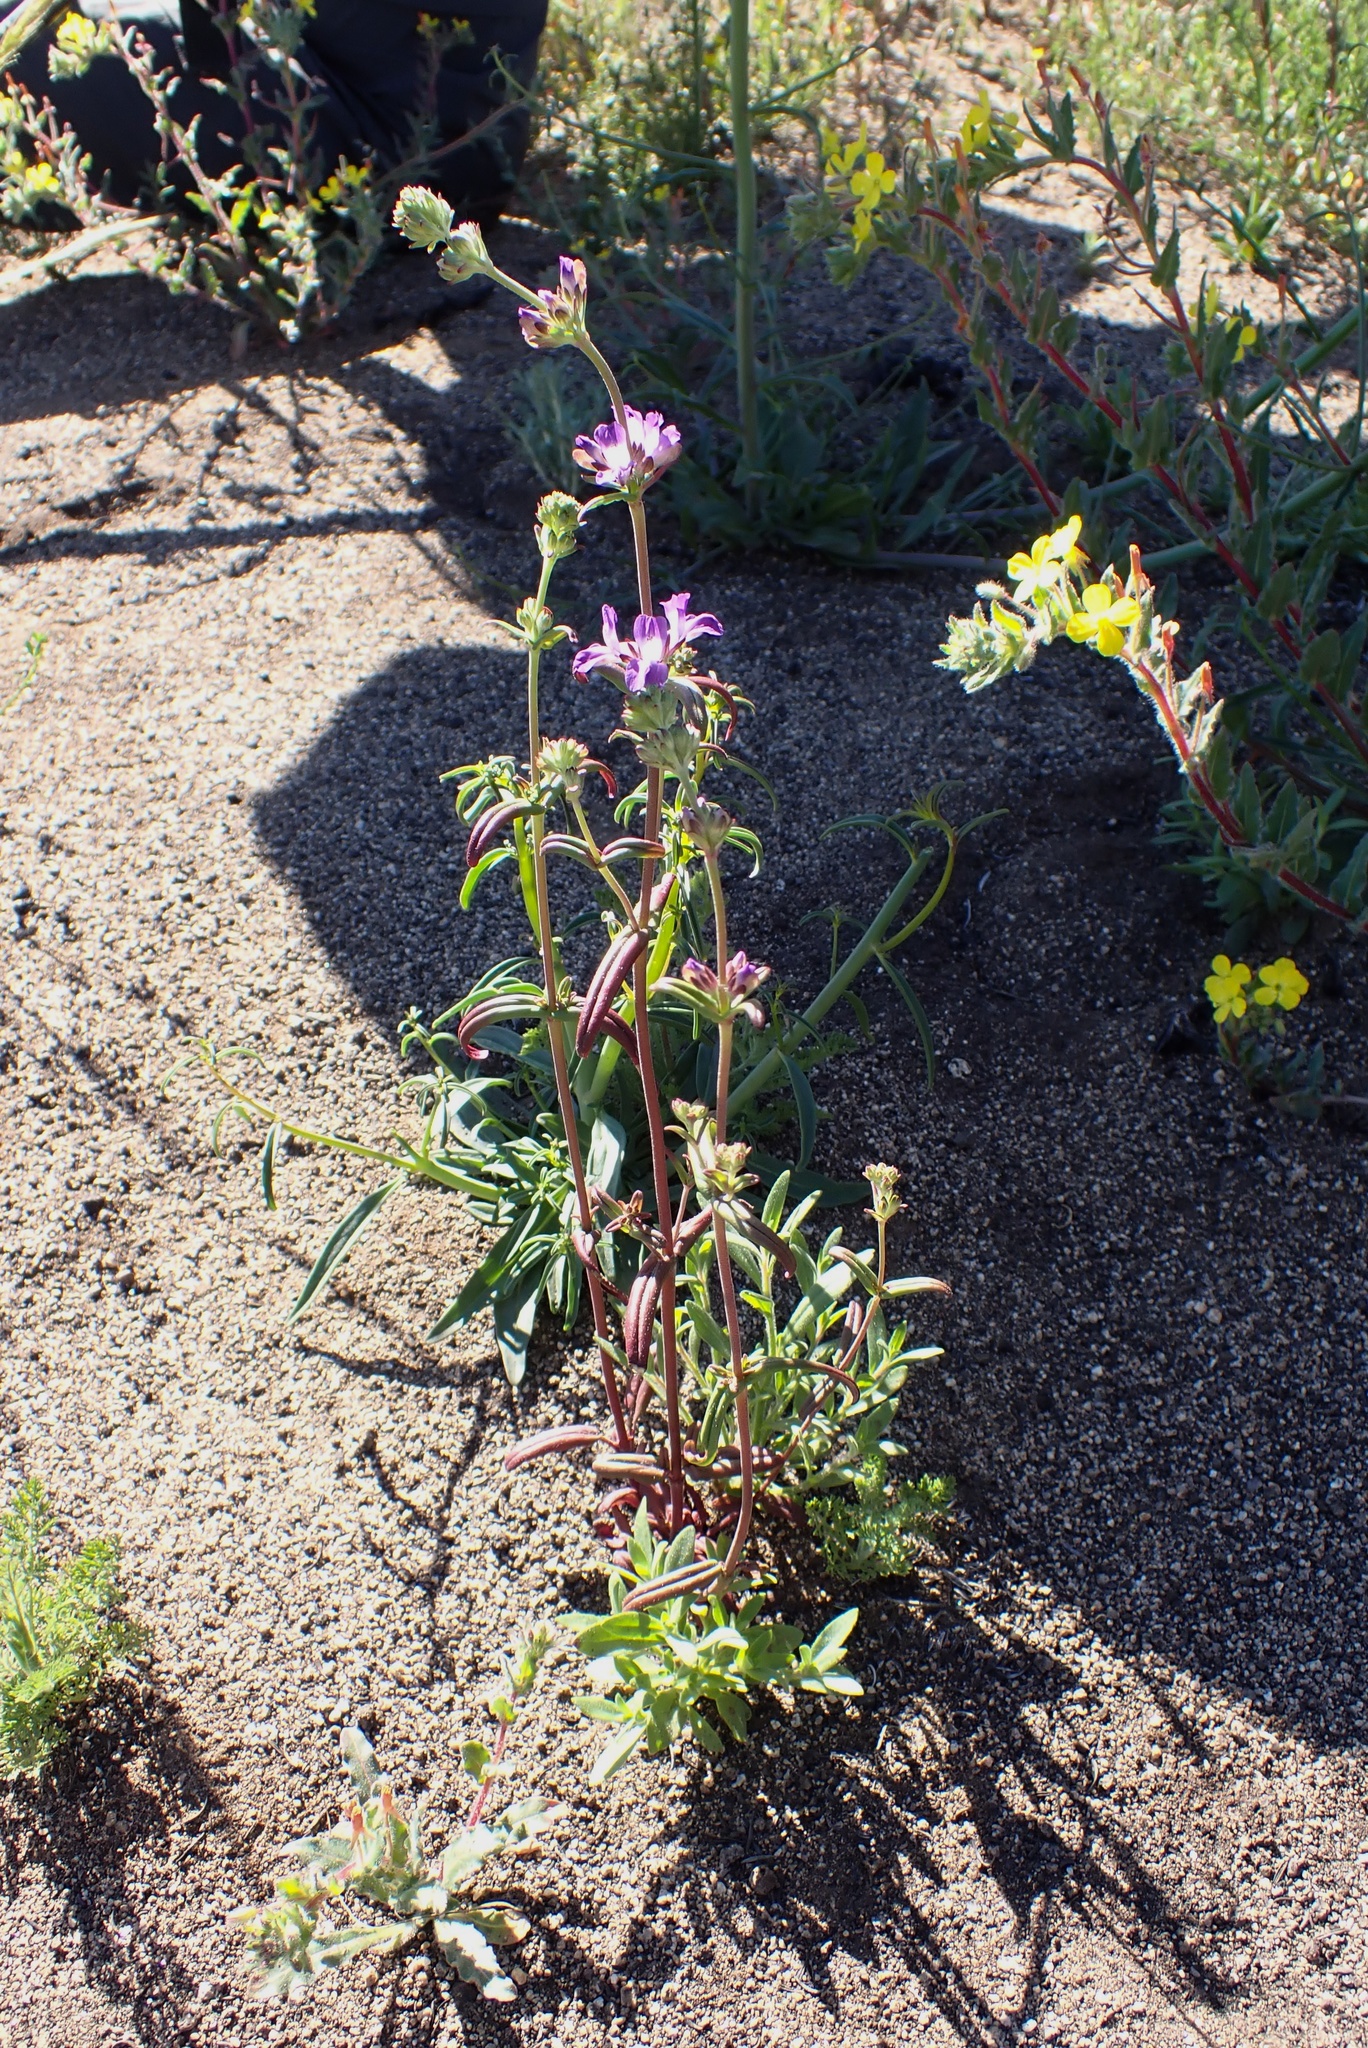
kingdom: Plantae
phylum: Tracheophyta
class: Magnoliopsida
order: Lamiales
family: Plantaginaceae
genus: Collinsia
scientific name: Collinsia concolor
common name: Chinese houses
